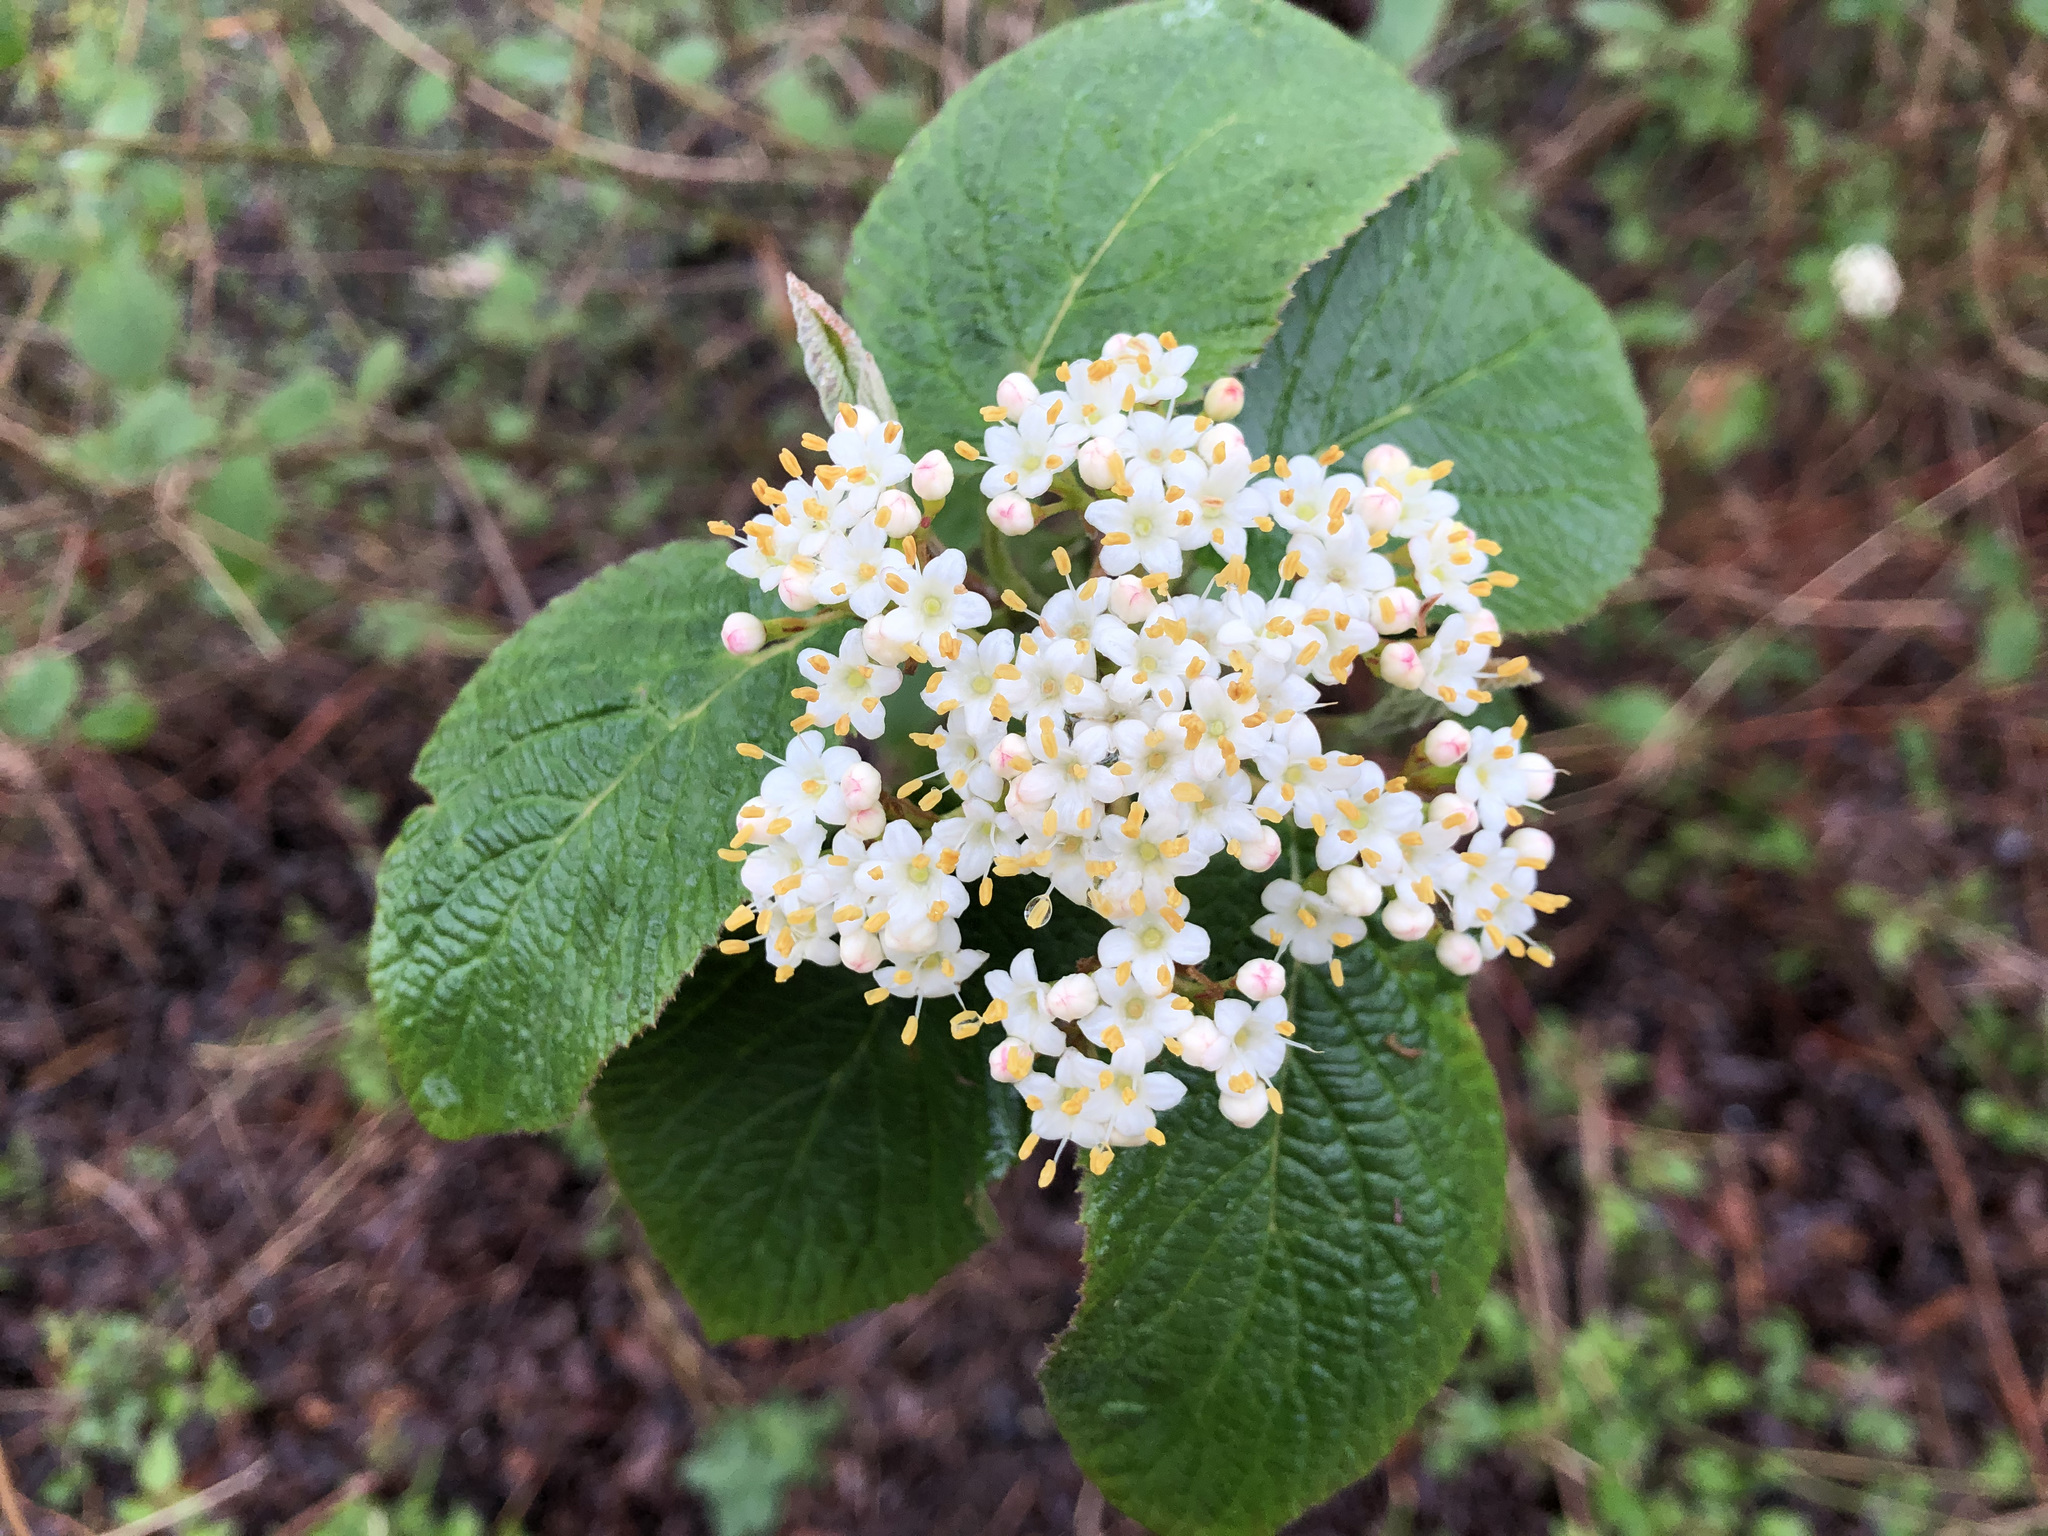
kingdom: Plantae
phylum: Tracheophyta
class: Magnoliopsida
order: Dipsacales
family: Viburnaceae
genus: Viburnum
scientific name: Viburnum lantana
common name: Wayfaring tree
